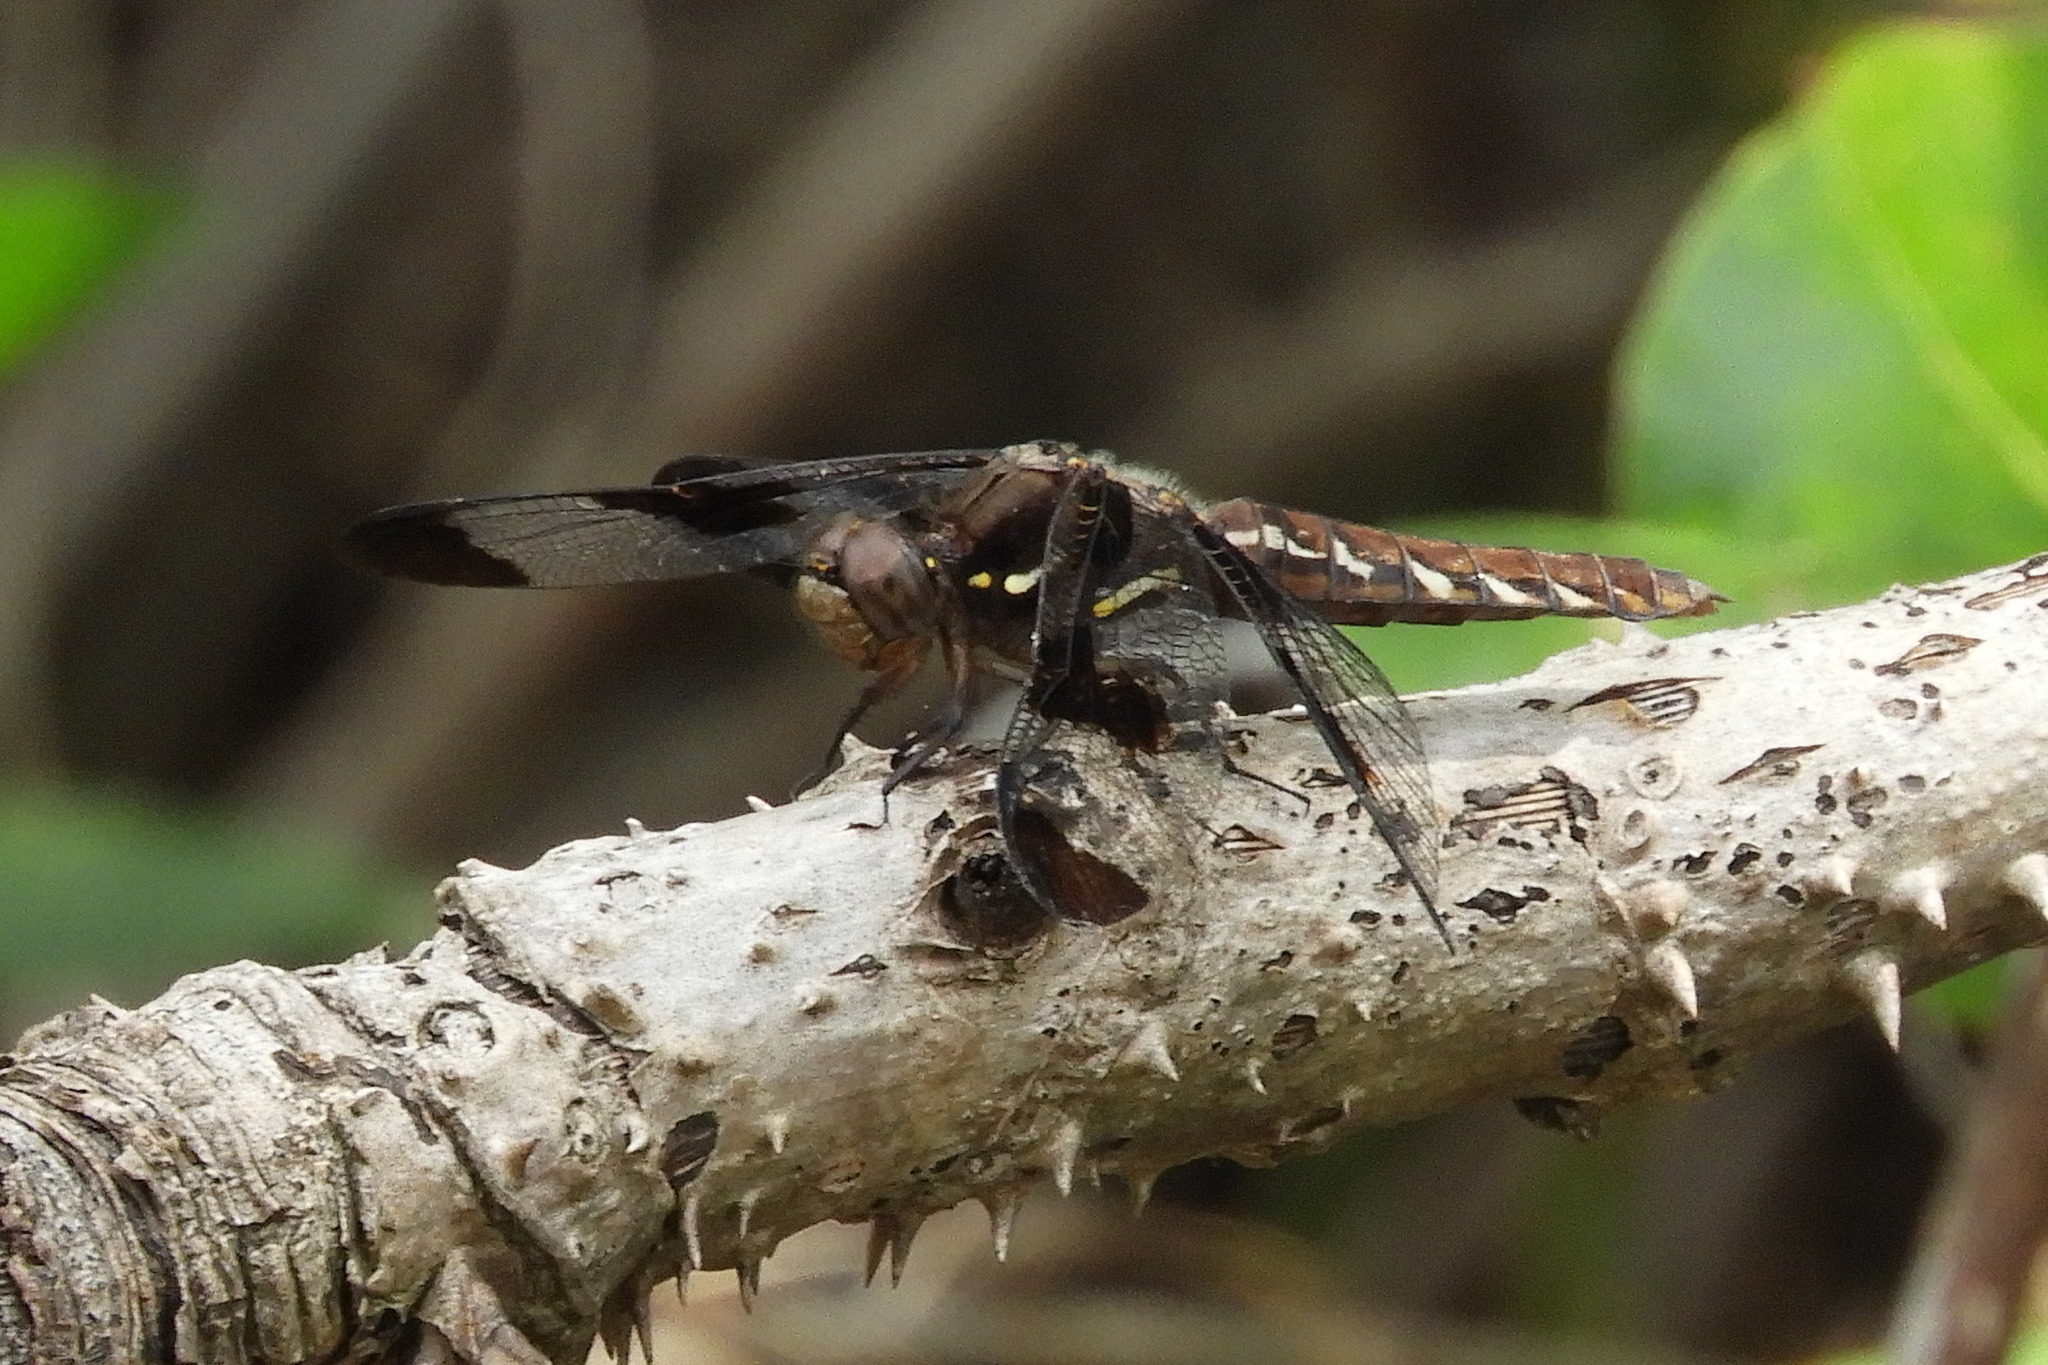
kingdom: Animalia
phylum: Arthropoda
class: Insecta
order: Odonata
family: Libellulidae
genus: Plathemis
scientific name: Plathemis lydia
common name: Common whitetail
